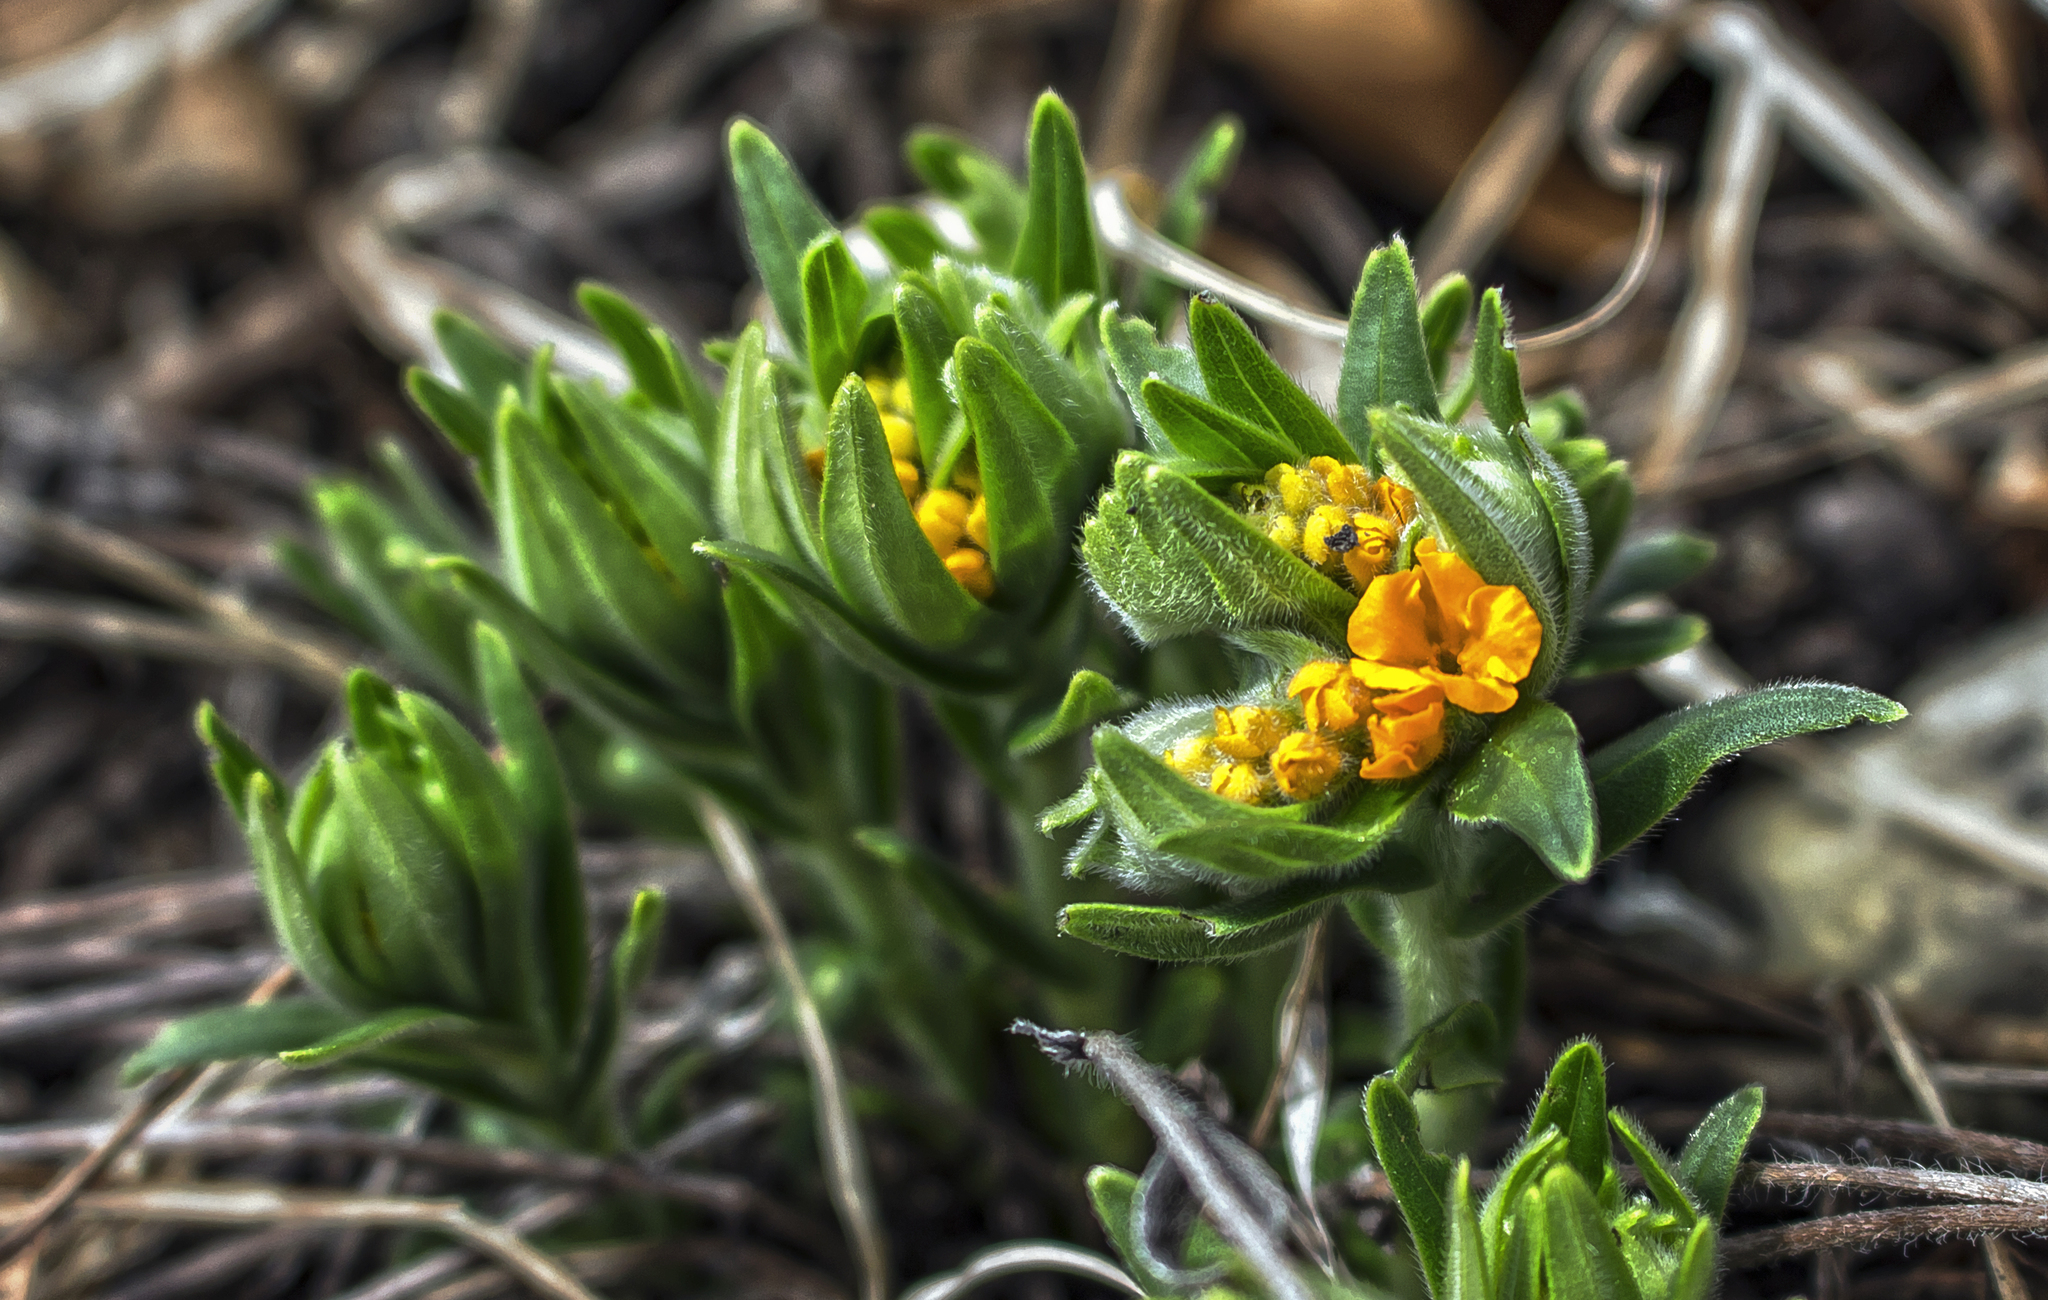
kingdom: Plantae
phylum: Tracheophyta
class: Magnoliopsida
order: Boraginales
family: Boraginaceae
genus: Lithospermum
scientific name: Lithospermum canescens
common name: Hoary puccoon
